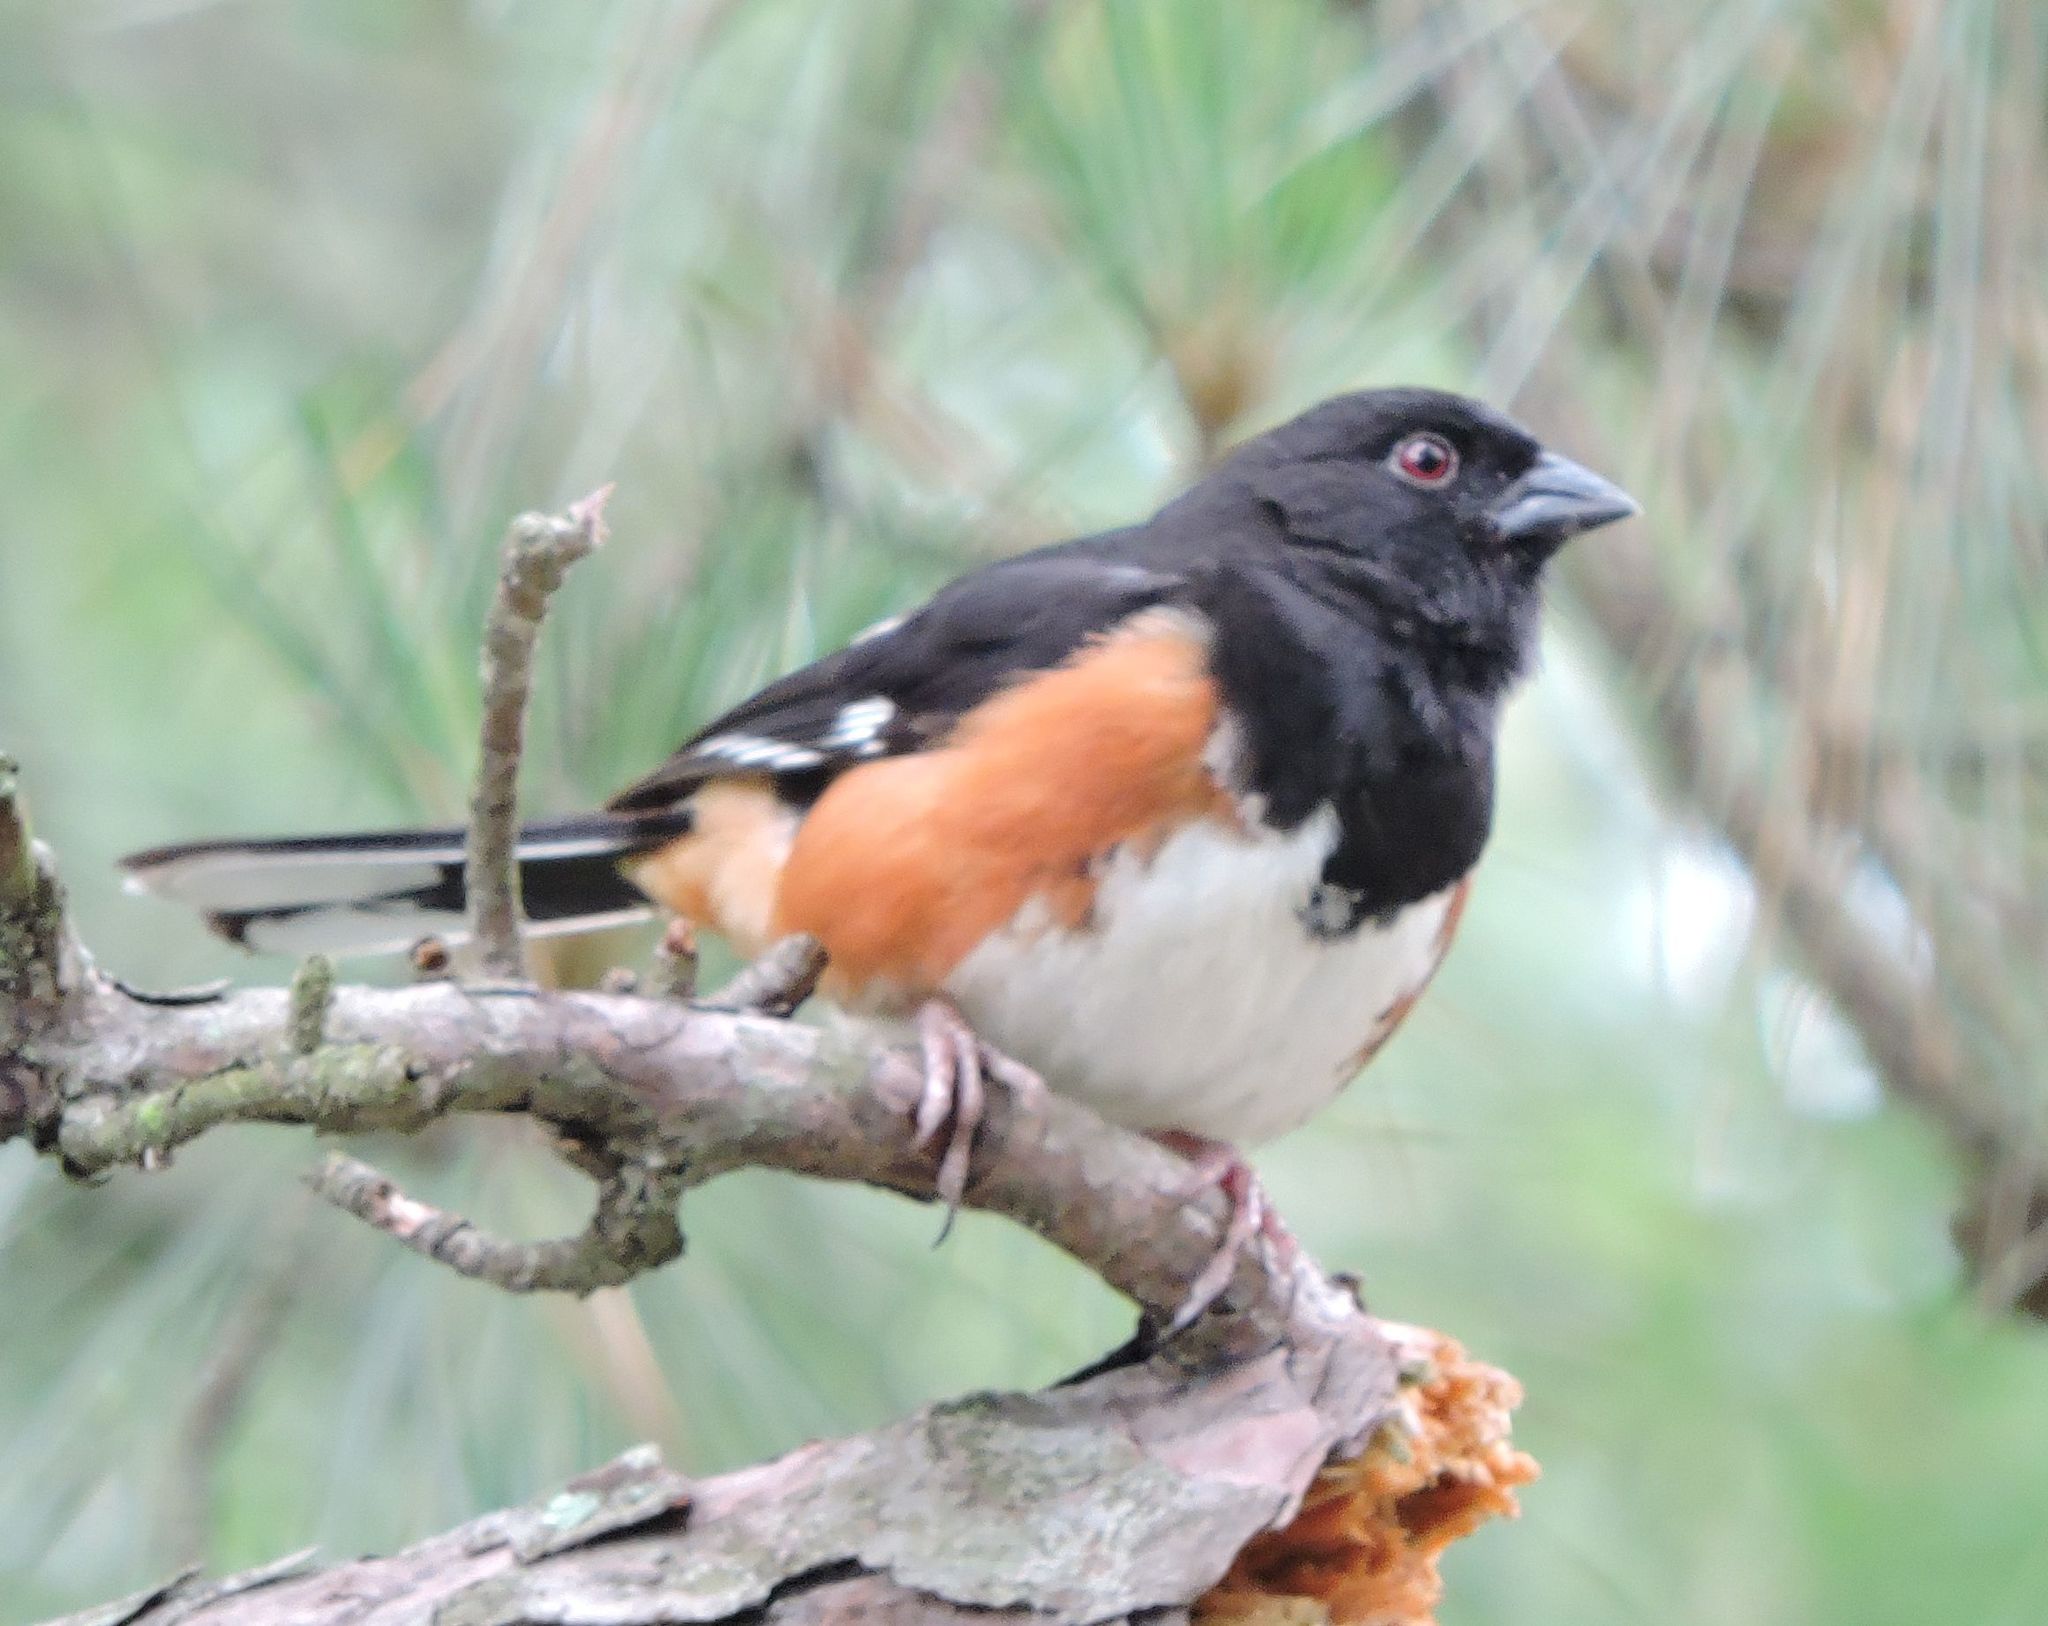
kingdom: Animalia
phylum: Chordata
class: Aves
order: Passeriformes
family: Passerellidae
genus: Pipilo
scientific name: Pipilo erythrophthalmus
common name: Eastern towhee
